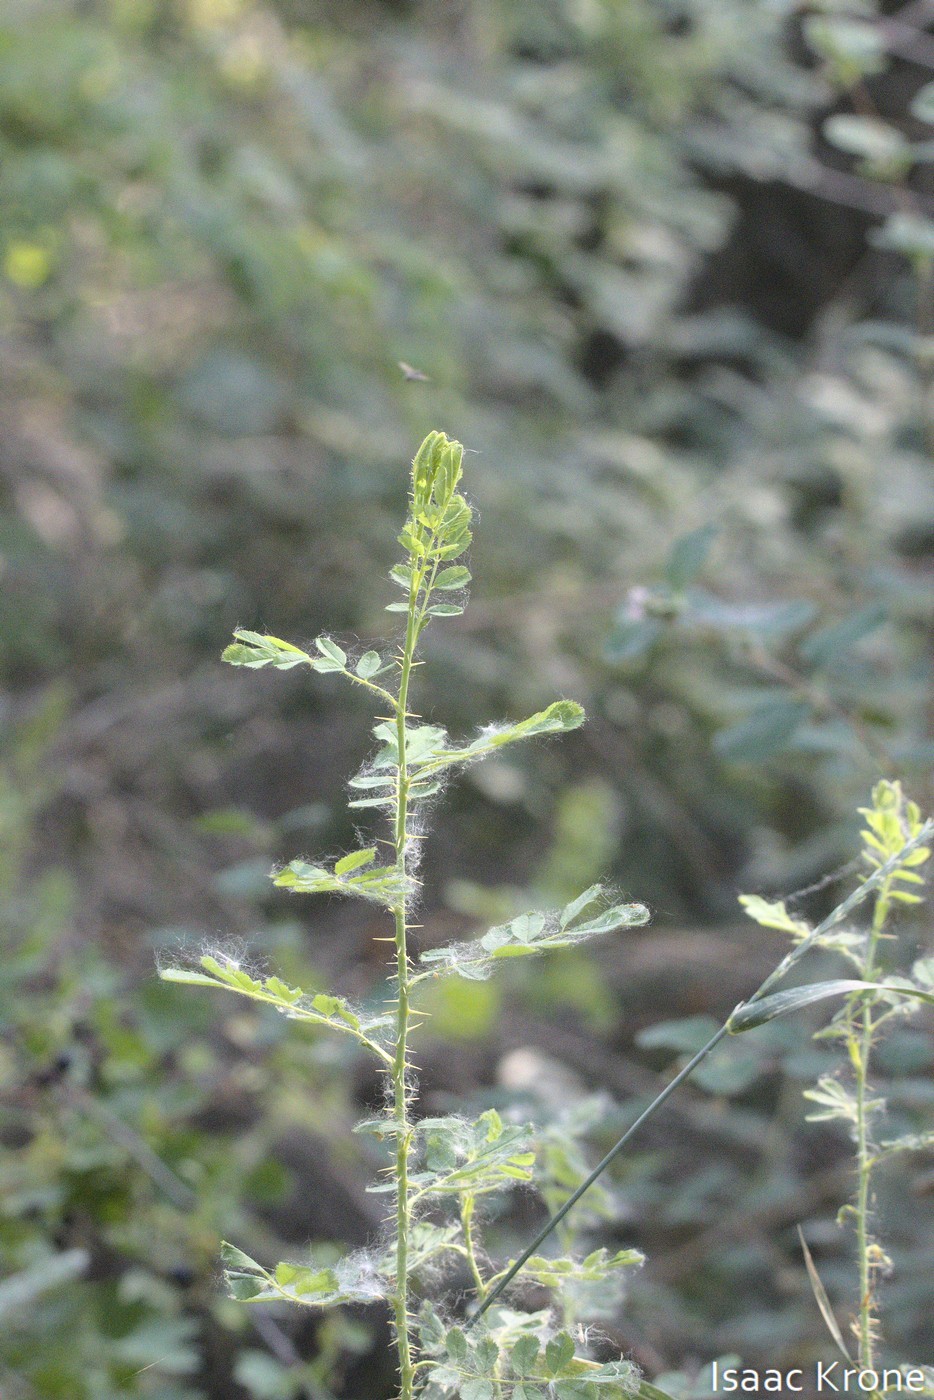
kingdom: Plantae
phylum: Tracheophyta
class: Magnoliopsida
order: Rosales
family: Rosaceae
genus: Rosa
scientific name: Rosa woodsii
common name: Woods's rose
